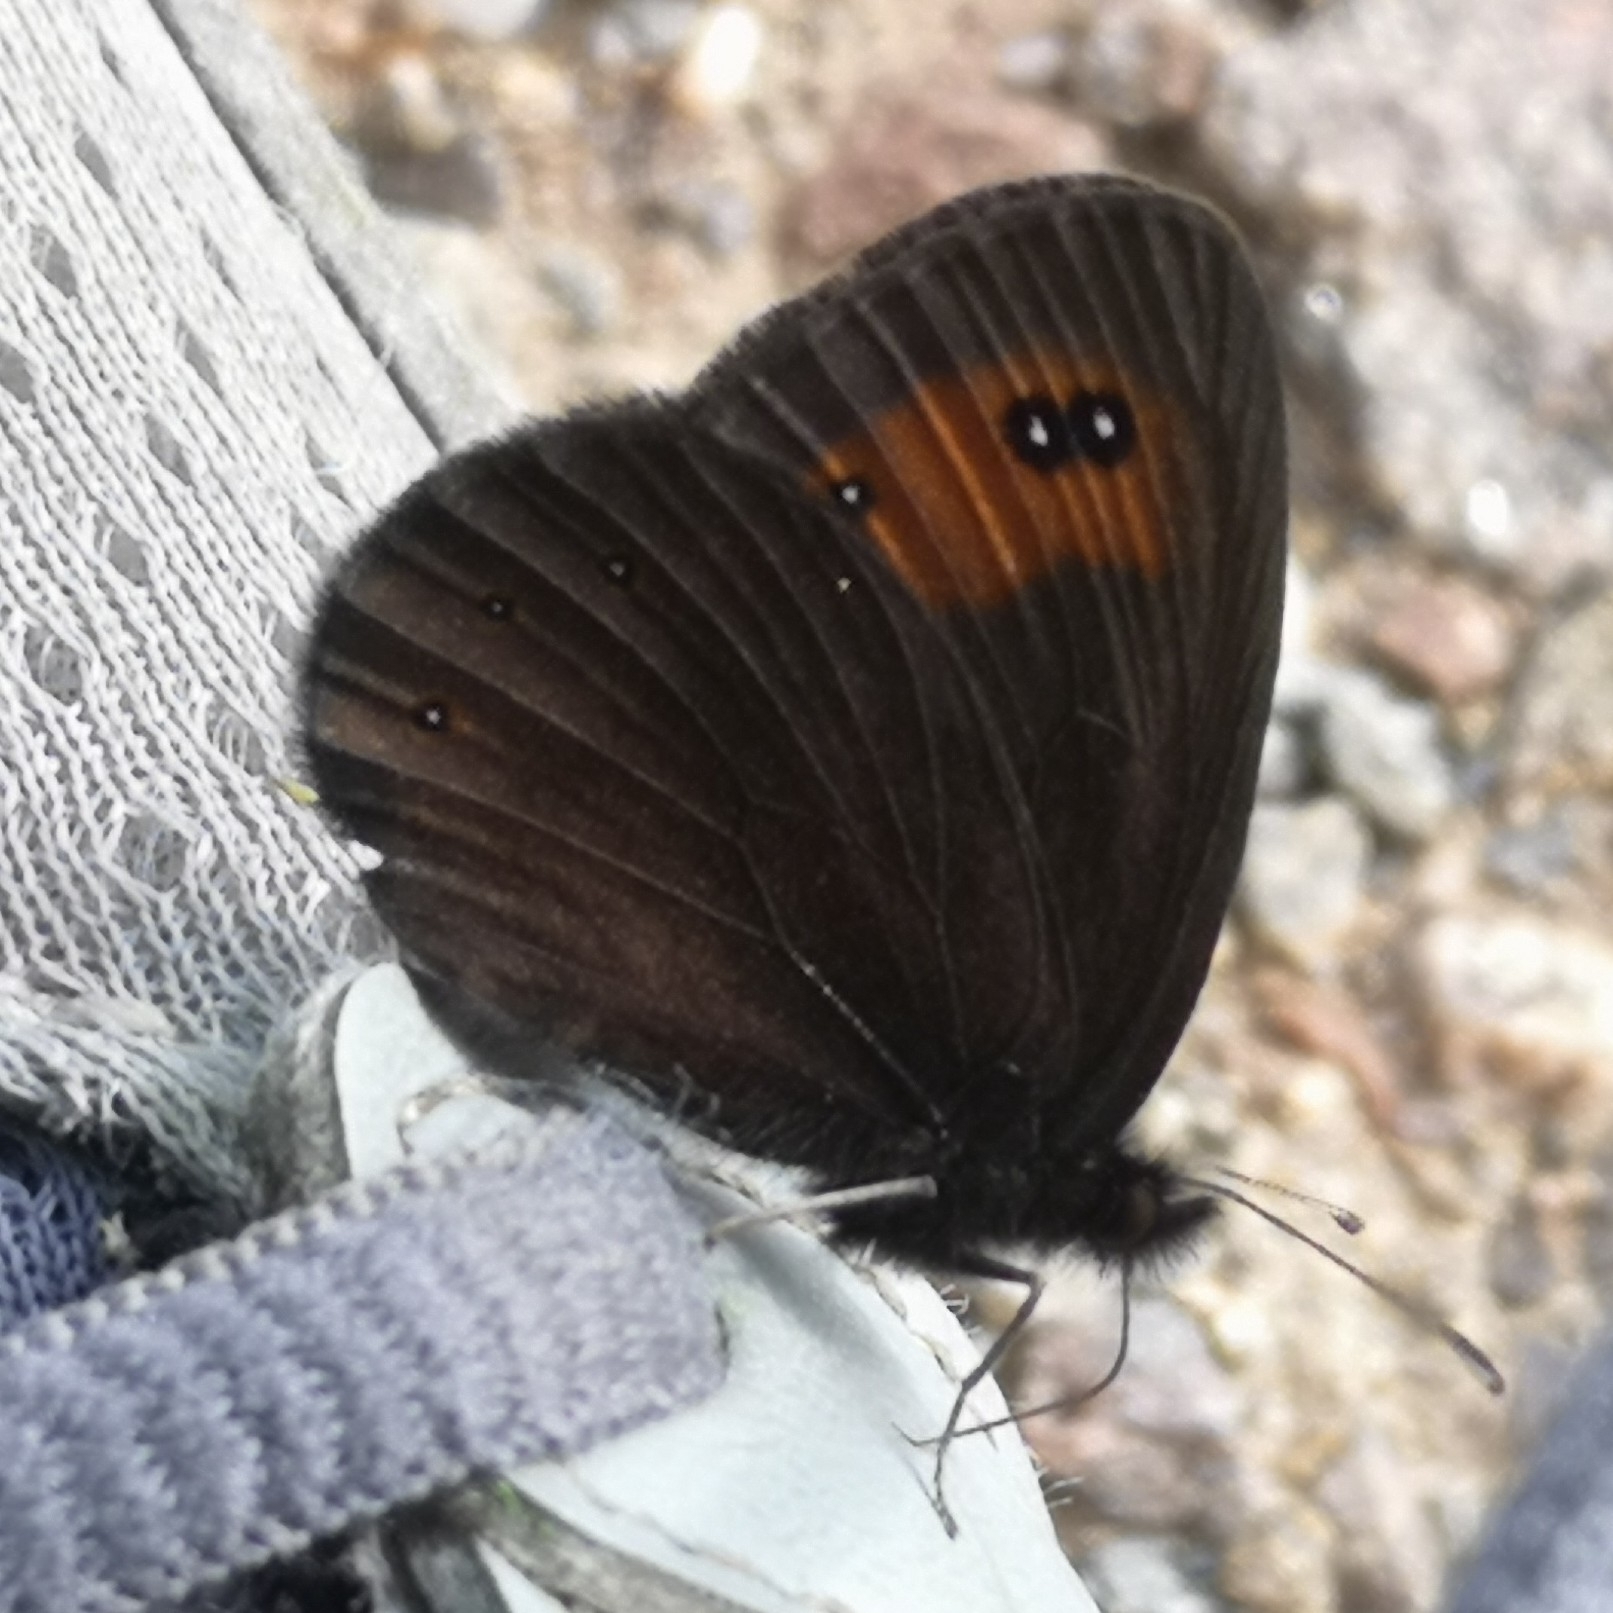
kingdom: Animalia
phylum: Arthropoda
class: Insecta
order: Lepidoptera
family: Nymphalidae
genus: Erebia
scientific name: Erebia meolans
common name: Piedmont ringlet
